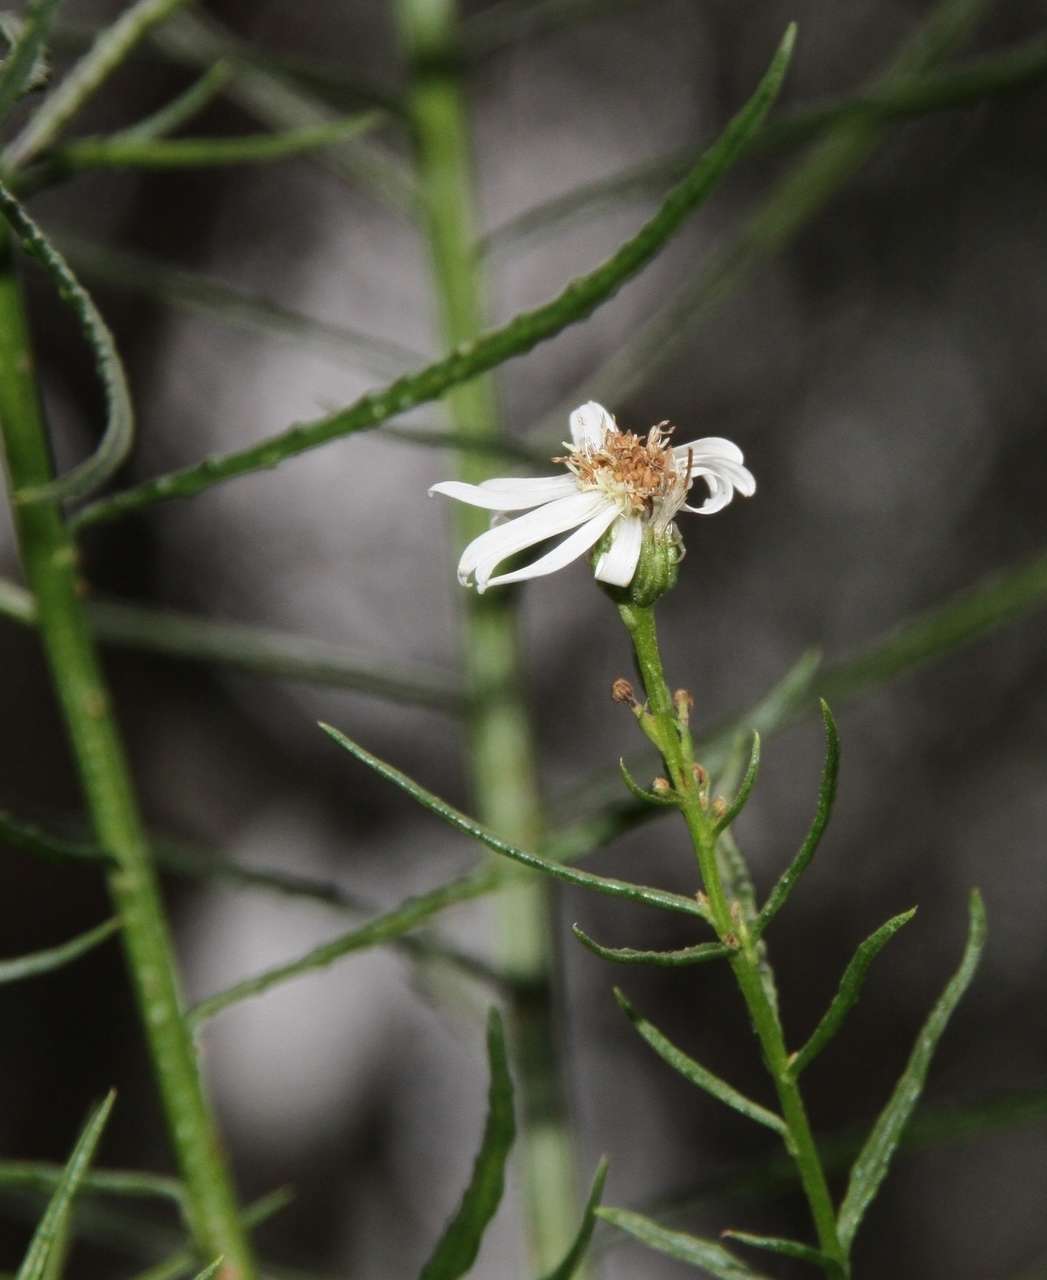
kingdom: Plantae
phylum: Tracheophyta
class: Magnoliopsida
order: Asterales
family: Asteraceae
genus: Spongotrichum
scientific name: Spongotrichum glandulosum
